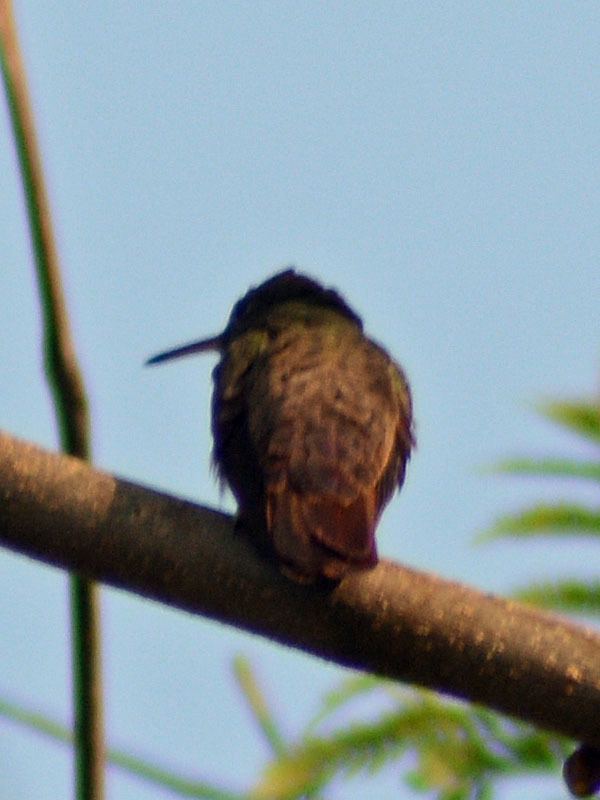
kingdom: Animalia
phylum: Chordata
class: Aves
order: Apodiformes
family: Trochilidae
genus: Saucerottia
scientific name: Saucerottia beryllina
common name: Berylline hummingbird
